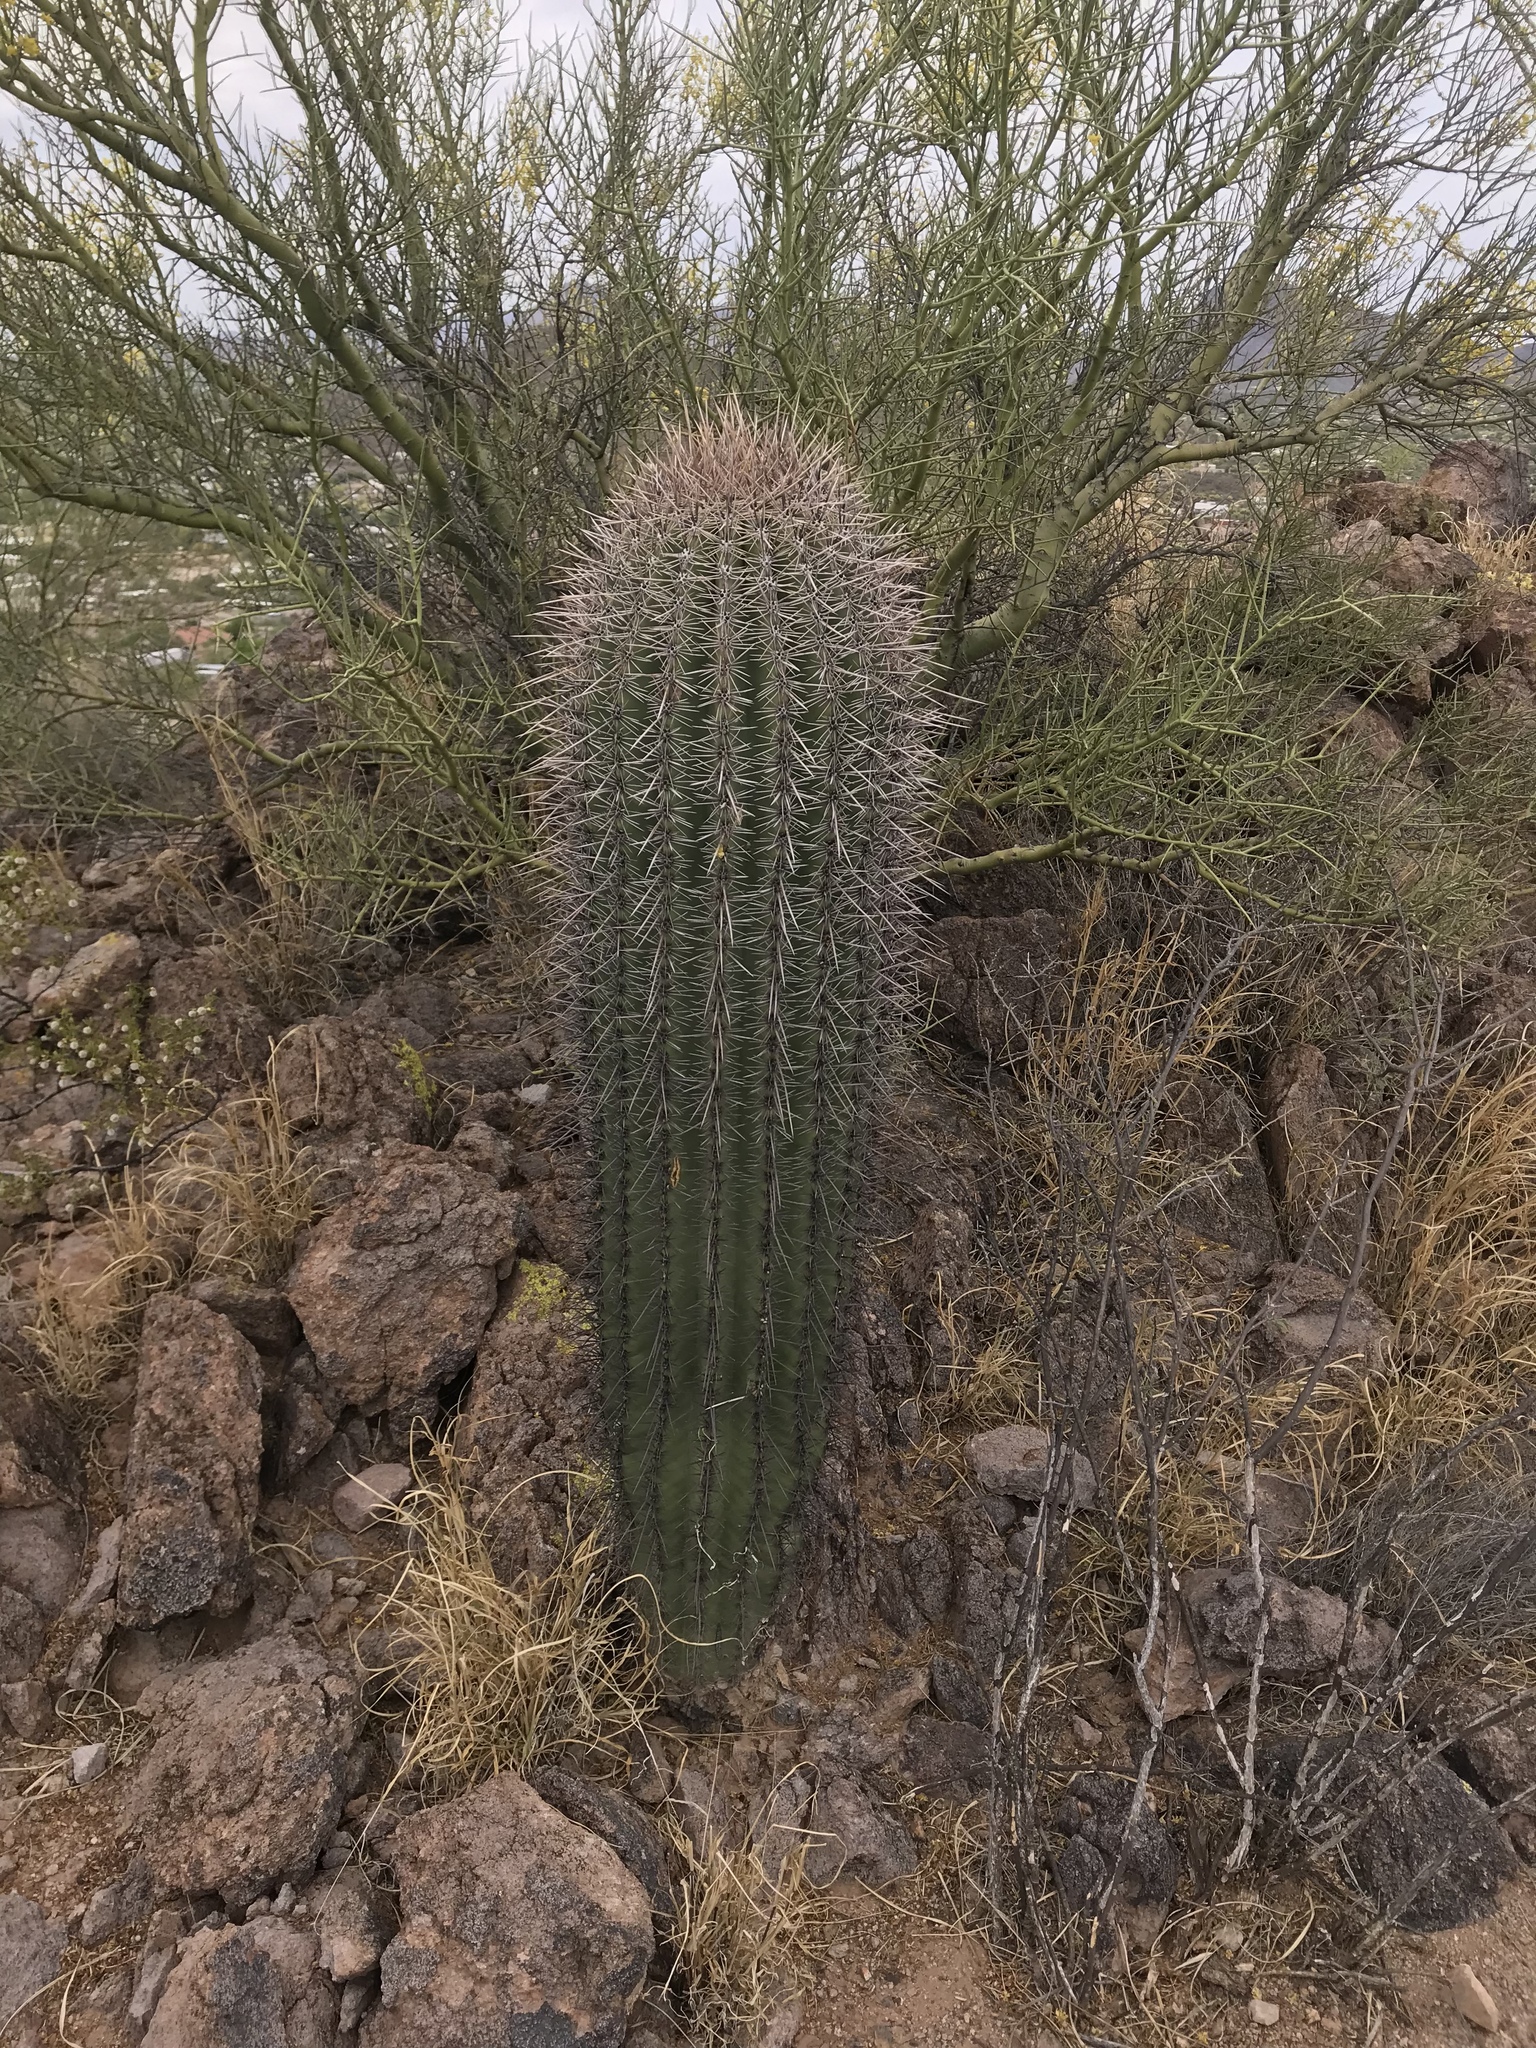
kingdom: Plantae
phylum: Tracheophyta
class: Magnoliopsida
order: Caryophyllales
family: Cactaceae
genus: Carnegiea
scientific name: Carnegiea gigantea
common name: Saguaro
